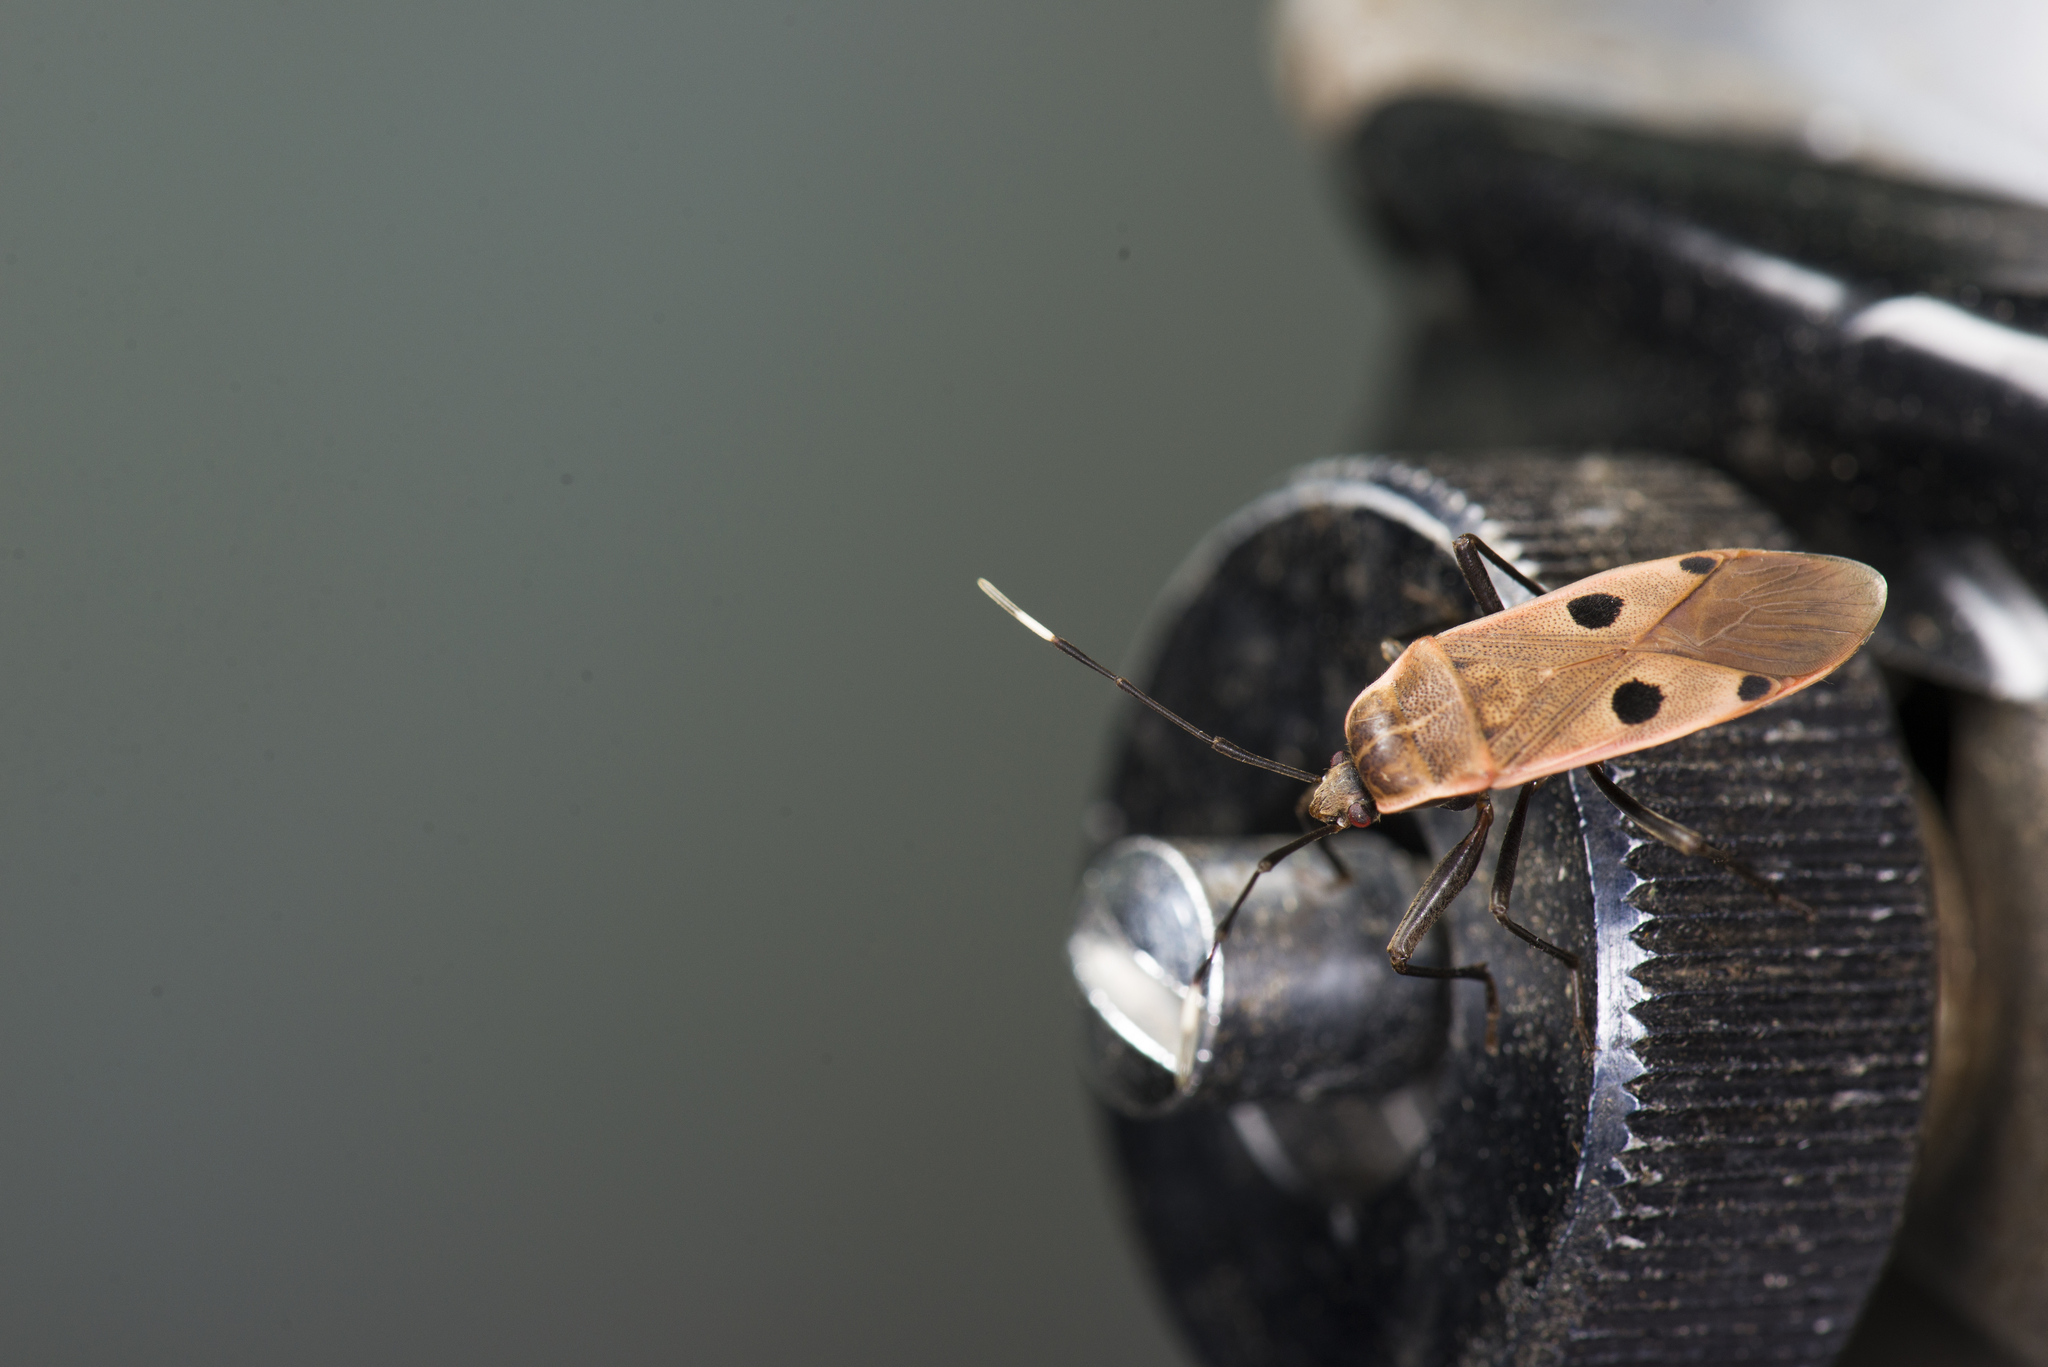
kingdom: Animalia
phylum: Arthropoda
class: Insecta
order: Hemiptera
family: Largidae
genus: Physopelta
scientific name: Physopelta quadriguttata
